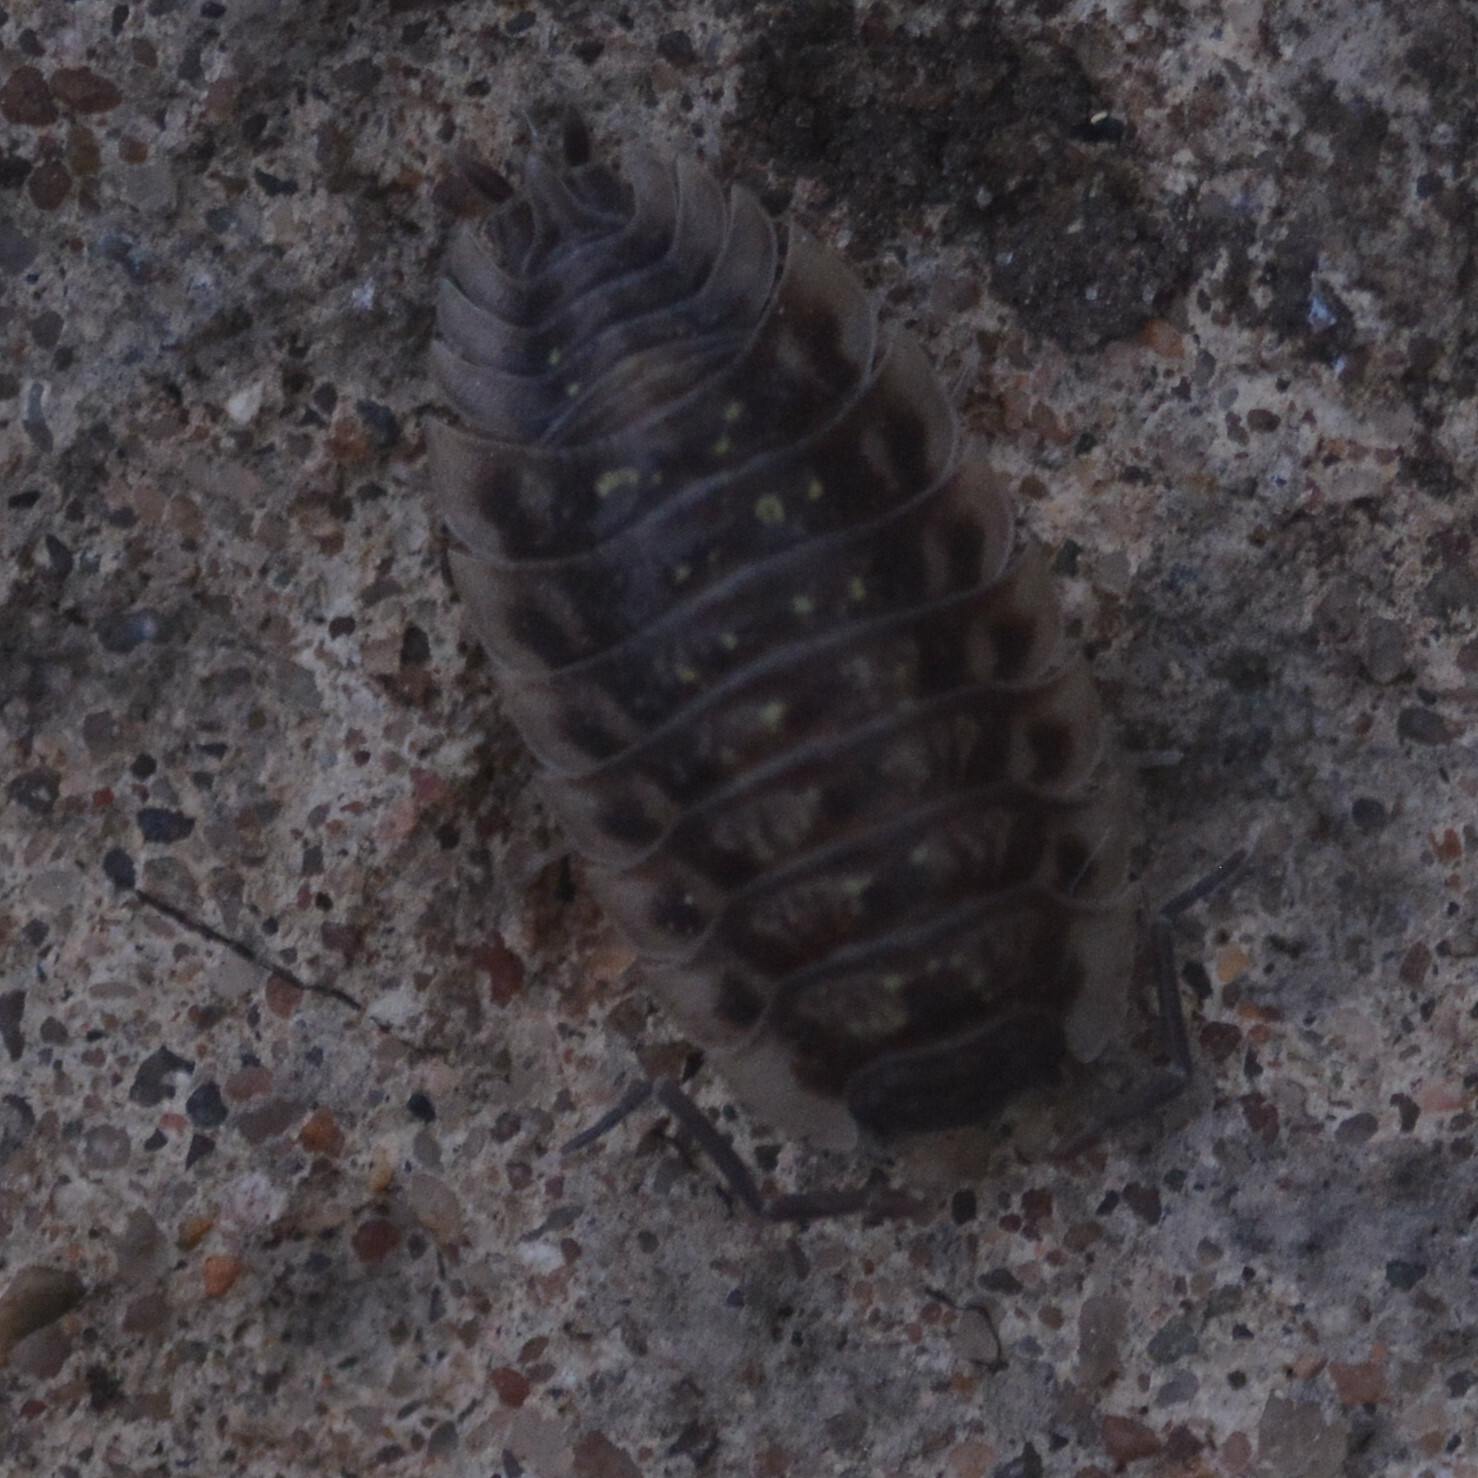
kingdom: Animalia
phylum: Arthropoda
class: Malacostraca
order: Isopoda
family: Oniscidae
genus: Oniscus
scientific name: Oniscus asellus
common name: Common shiny woodlouse
